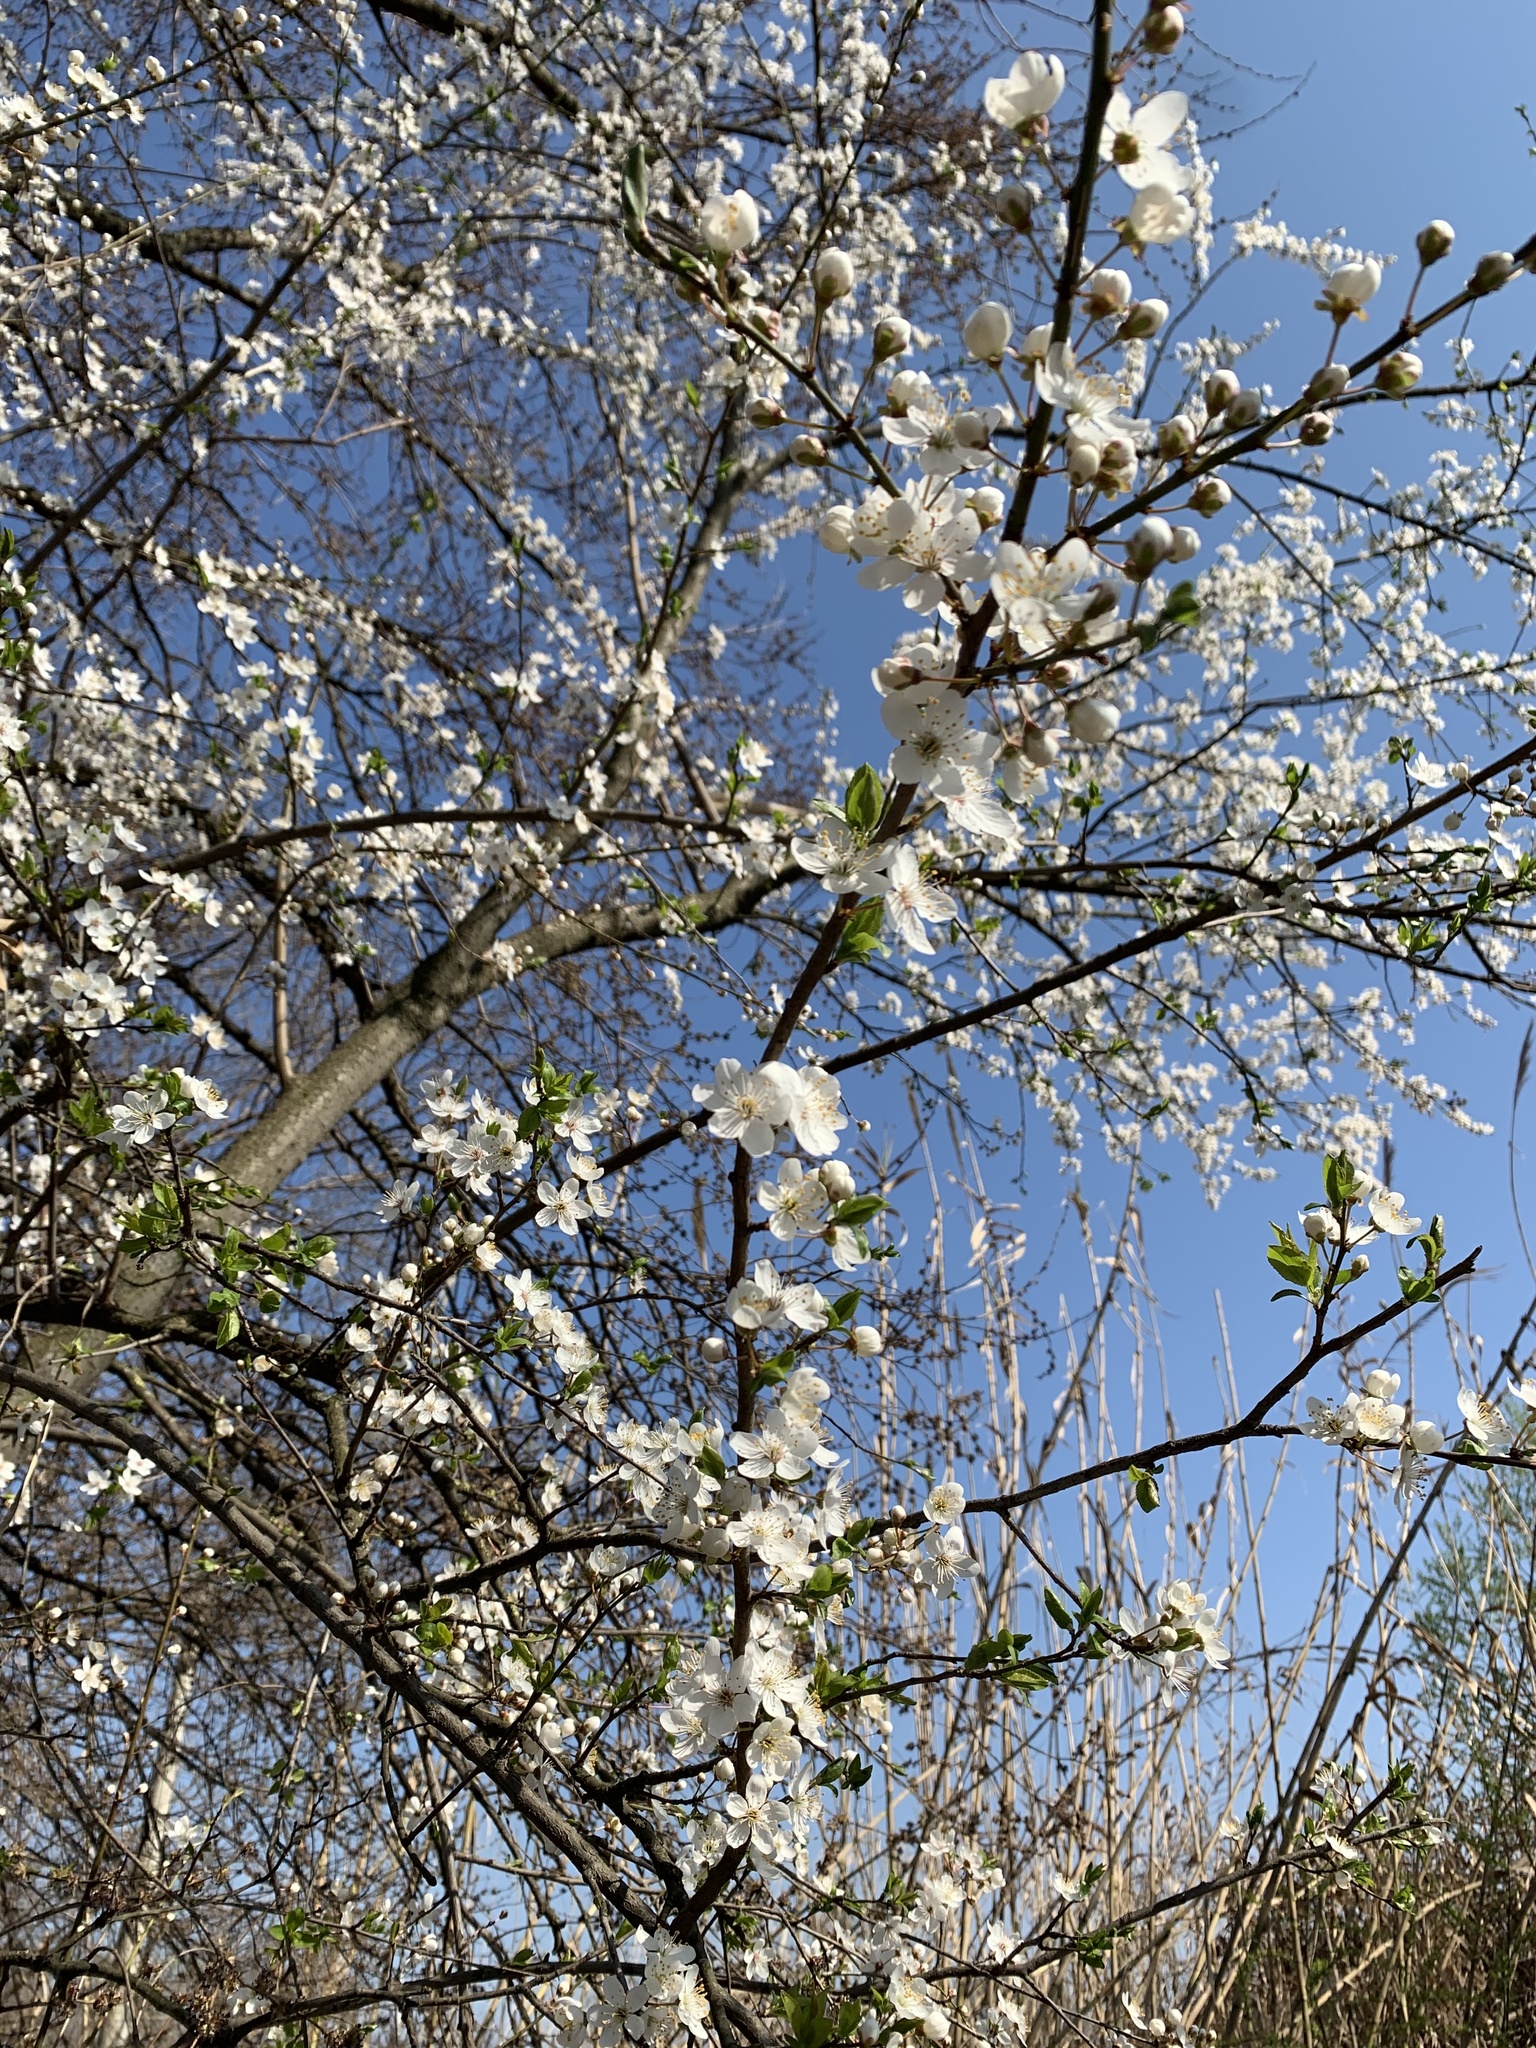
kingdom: Plantae
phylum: Tracheophyta
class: Magnoliopsida
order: Rosales
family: Rosaceae
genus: Prunus
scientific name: Prunus cerasifera
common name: Cherry plum
